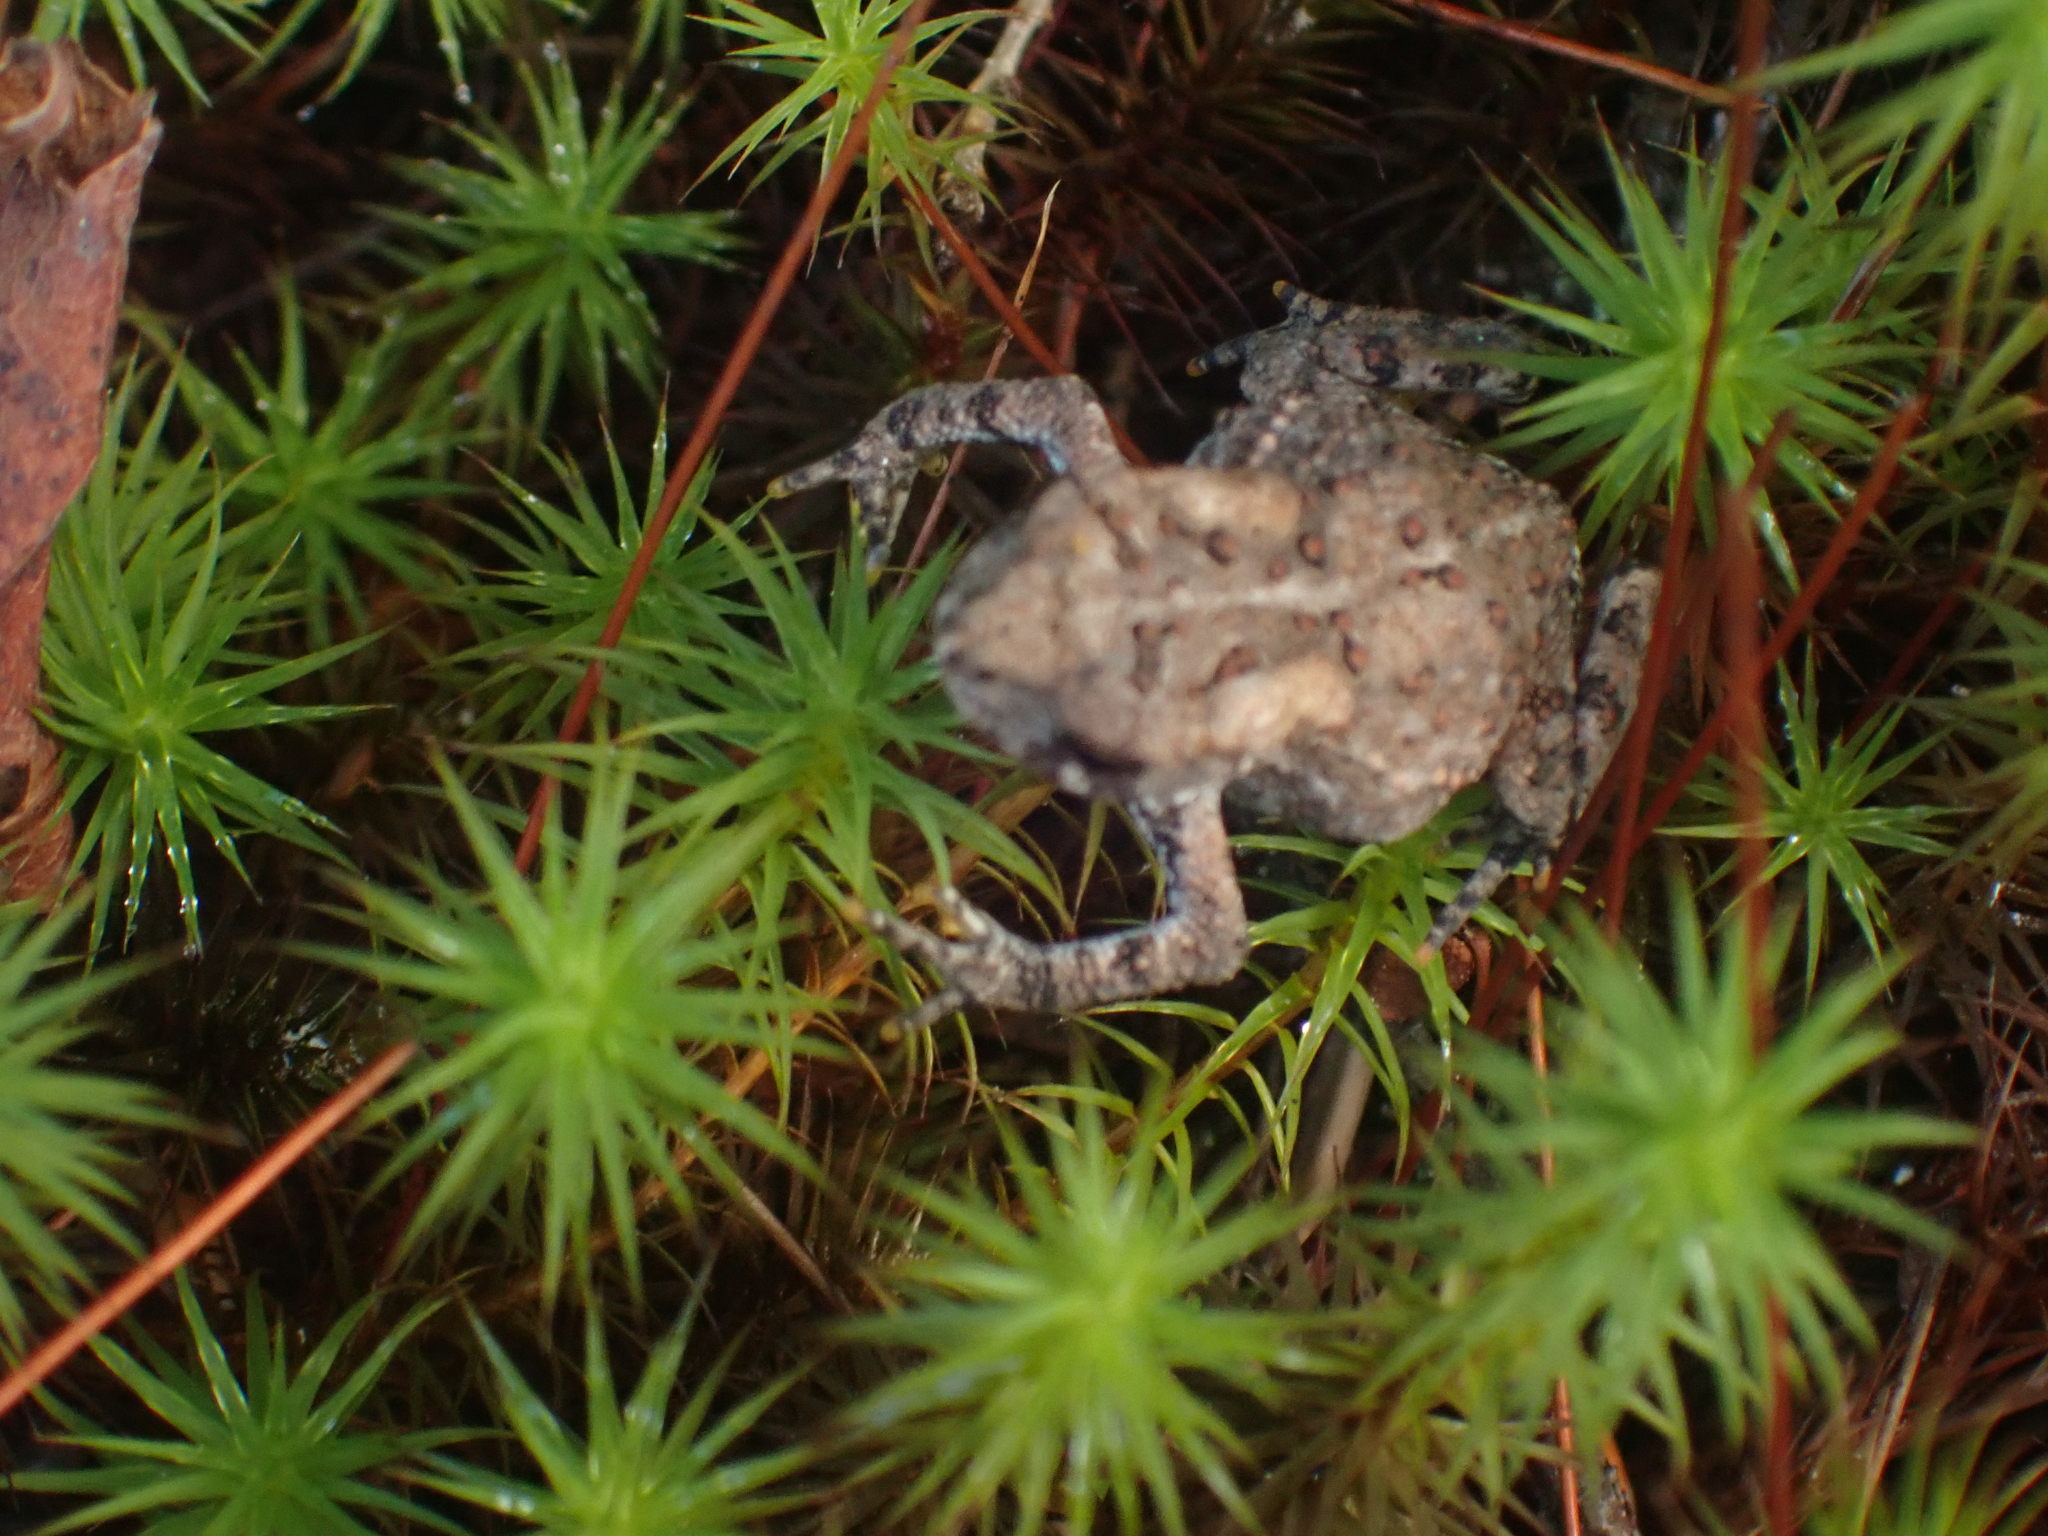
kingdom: Animalia
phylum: Chordata
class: Amphibia
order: Anura
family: Bufonidae
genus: Anaxyrus
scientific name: Anaxyrus americanus
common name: American toad
